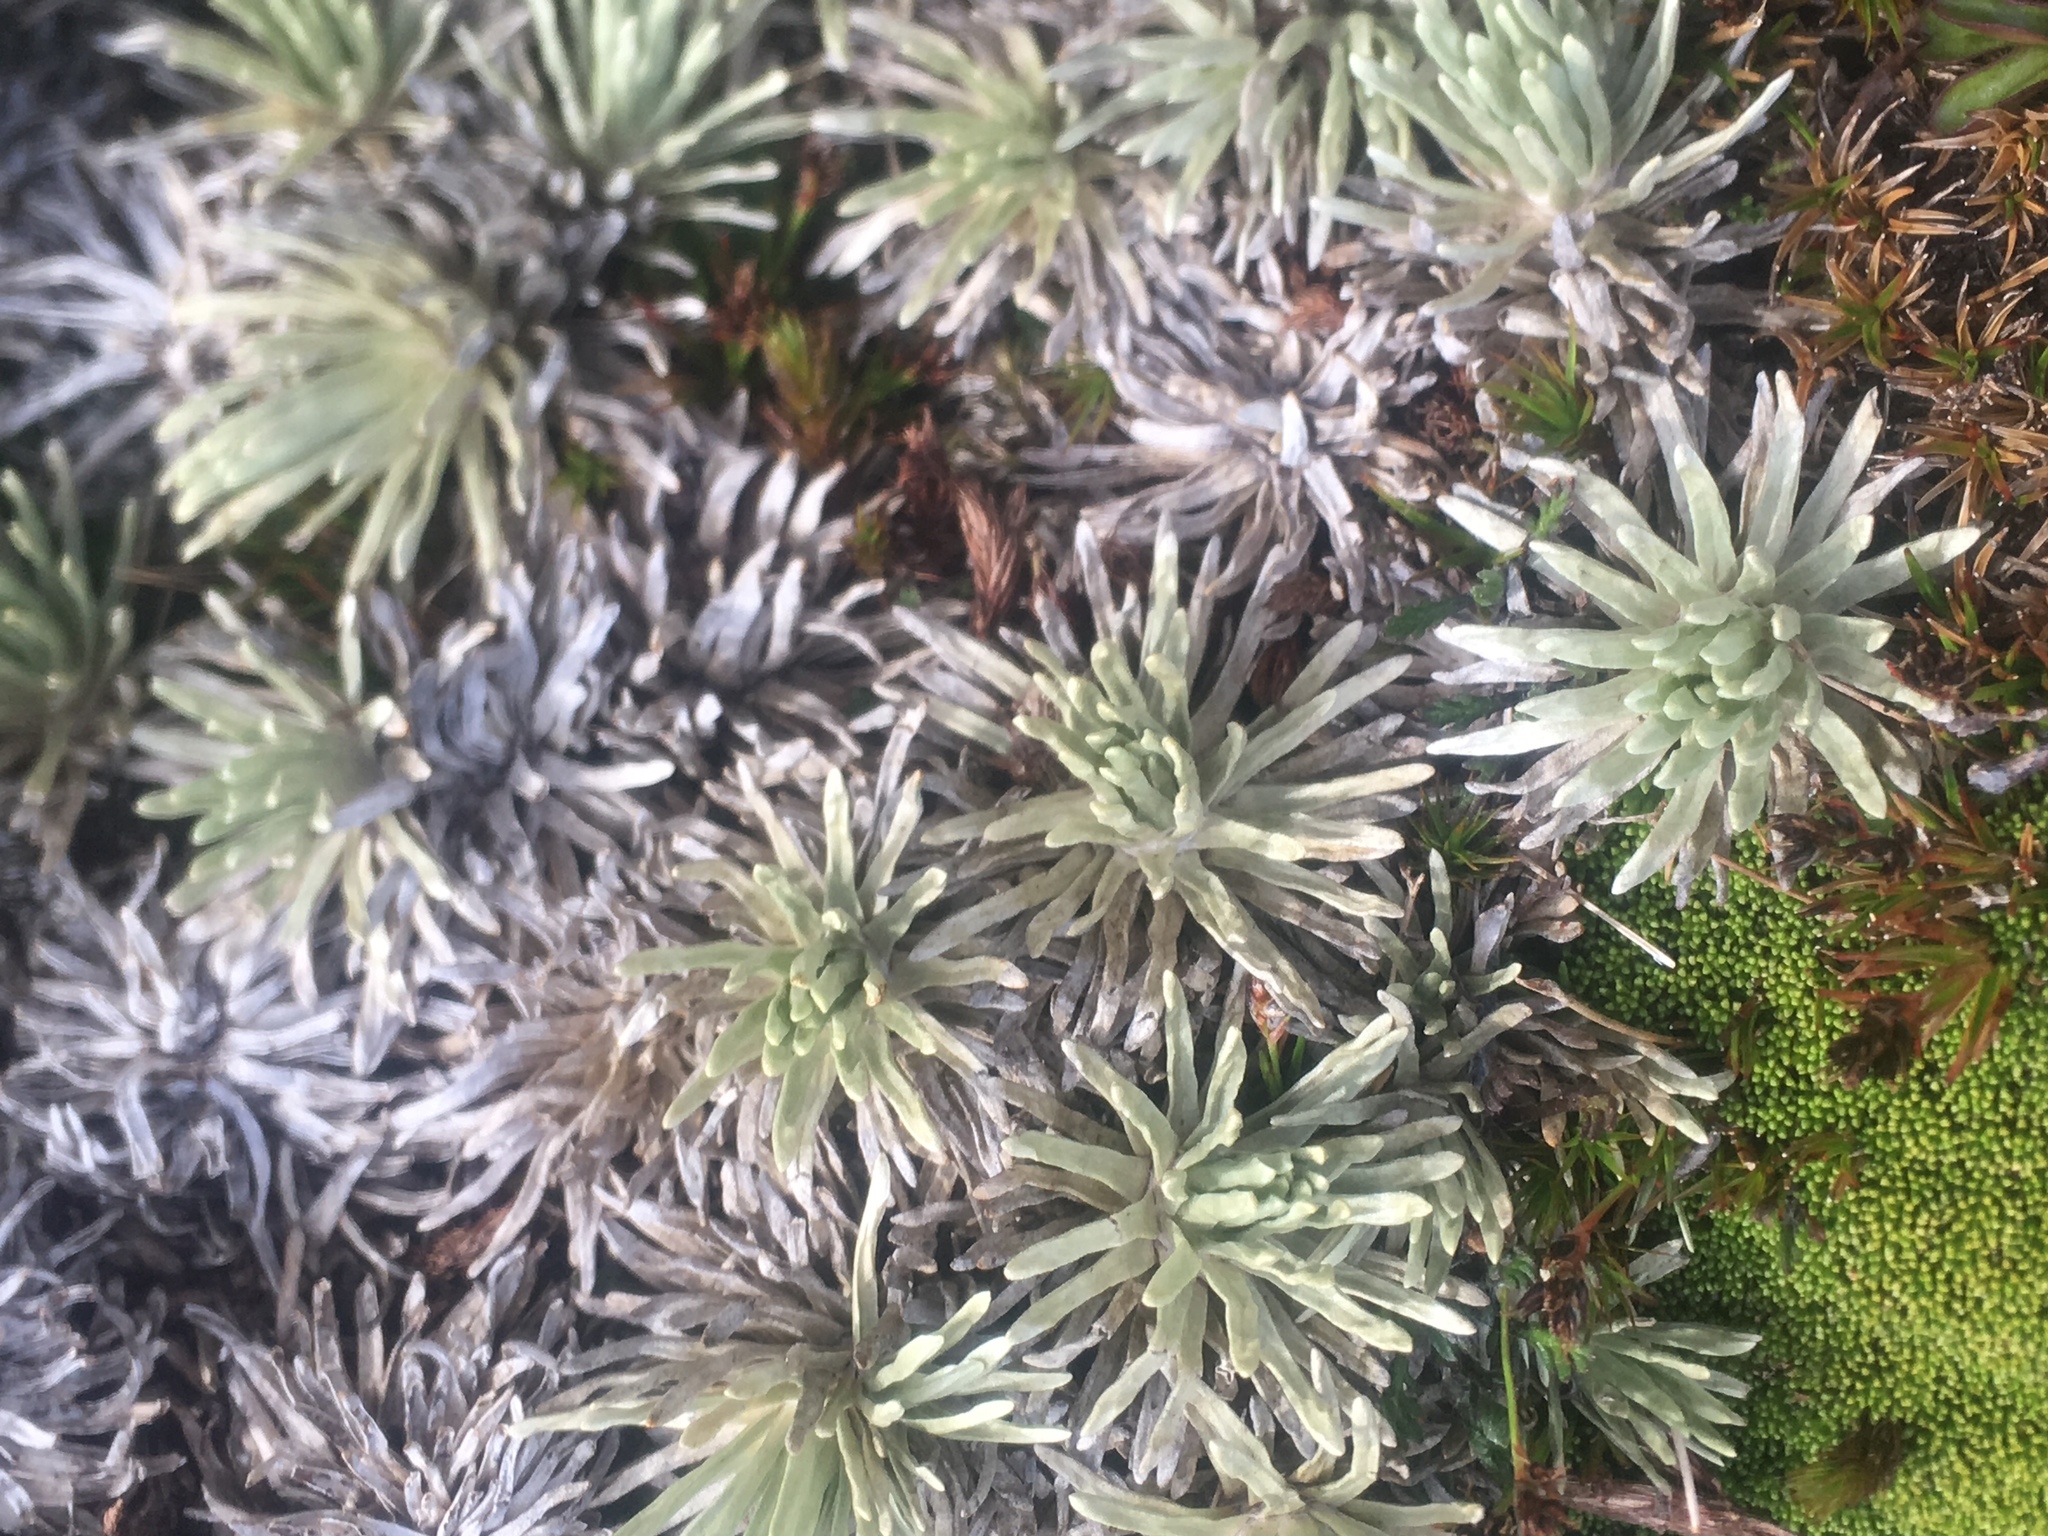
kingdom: Plantae
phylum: Tracheophyta
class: Magnoliopsida
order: Asterales
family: Asteraceae
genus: Celmisia
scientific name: Celmisia sessiliflora
